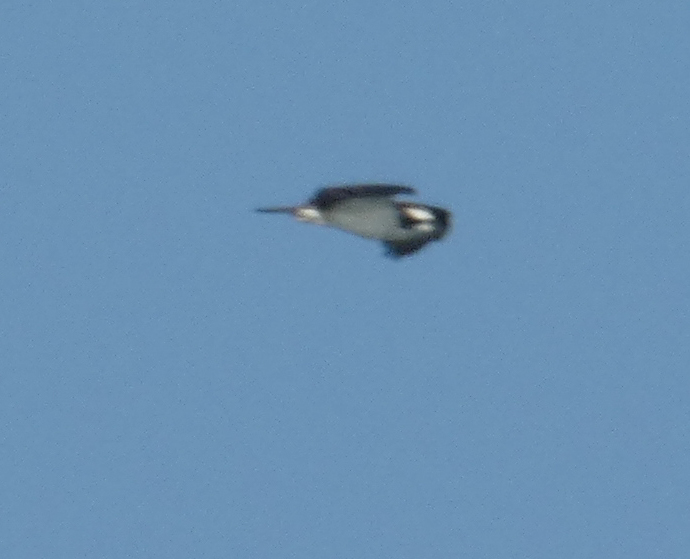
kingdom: Animalia
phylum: Chordata
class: Aves
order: Accipitriformes
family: Pandionidae
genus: Pandion
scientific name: Pandion haliaetus
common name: Osprey
